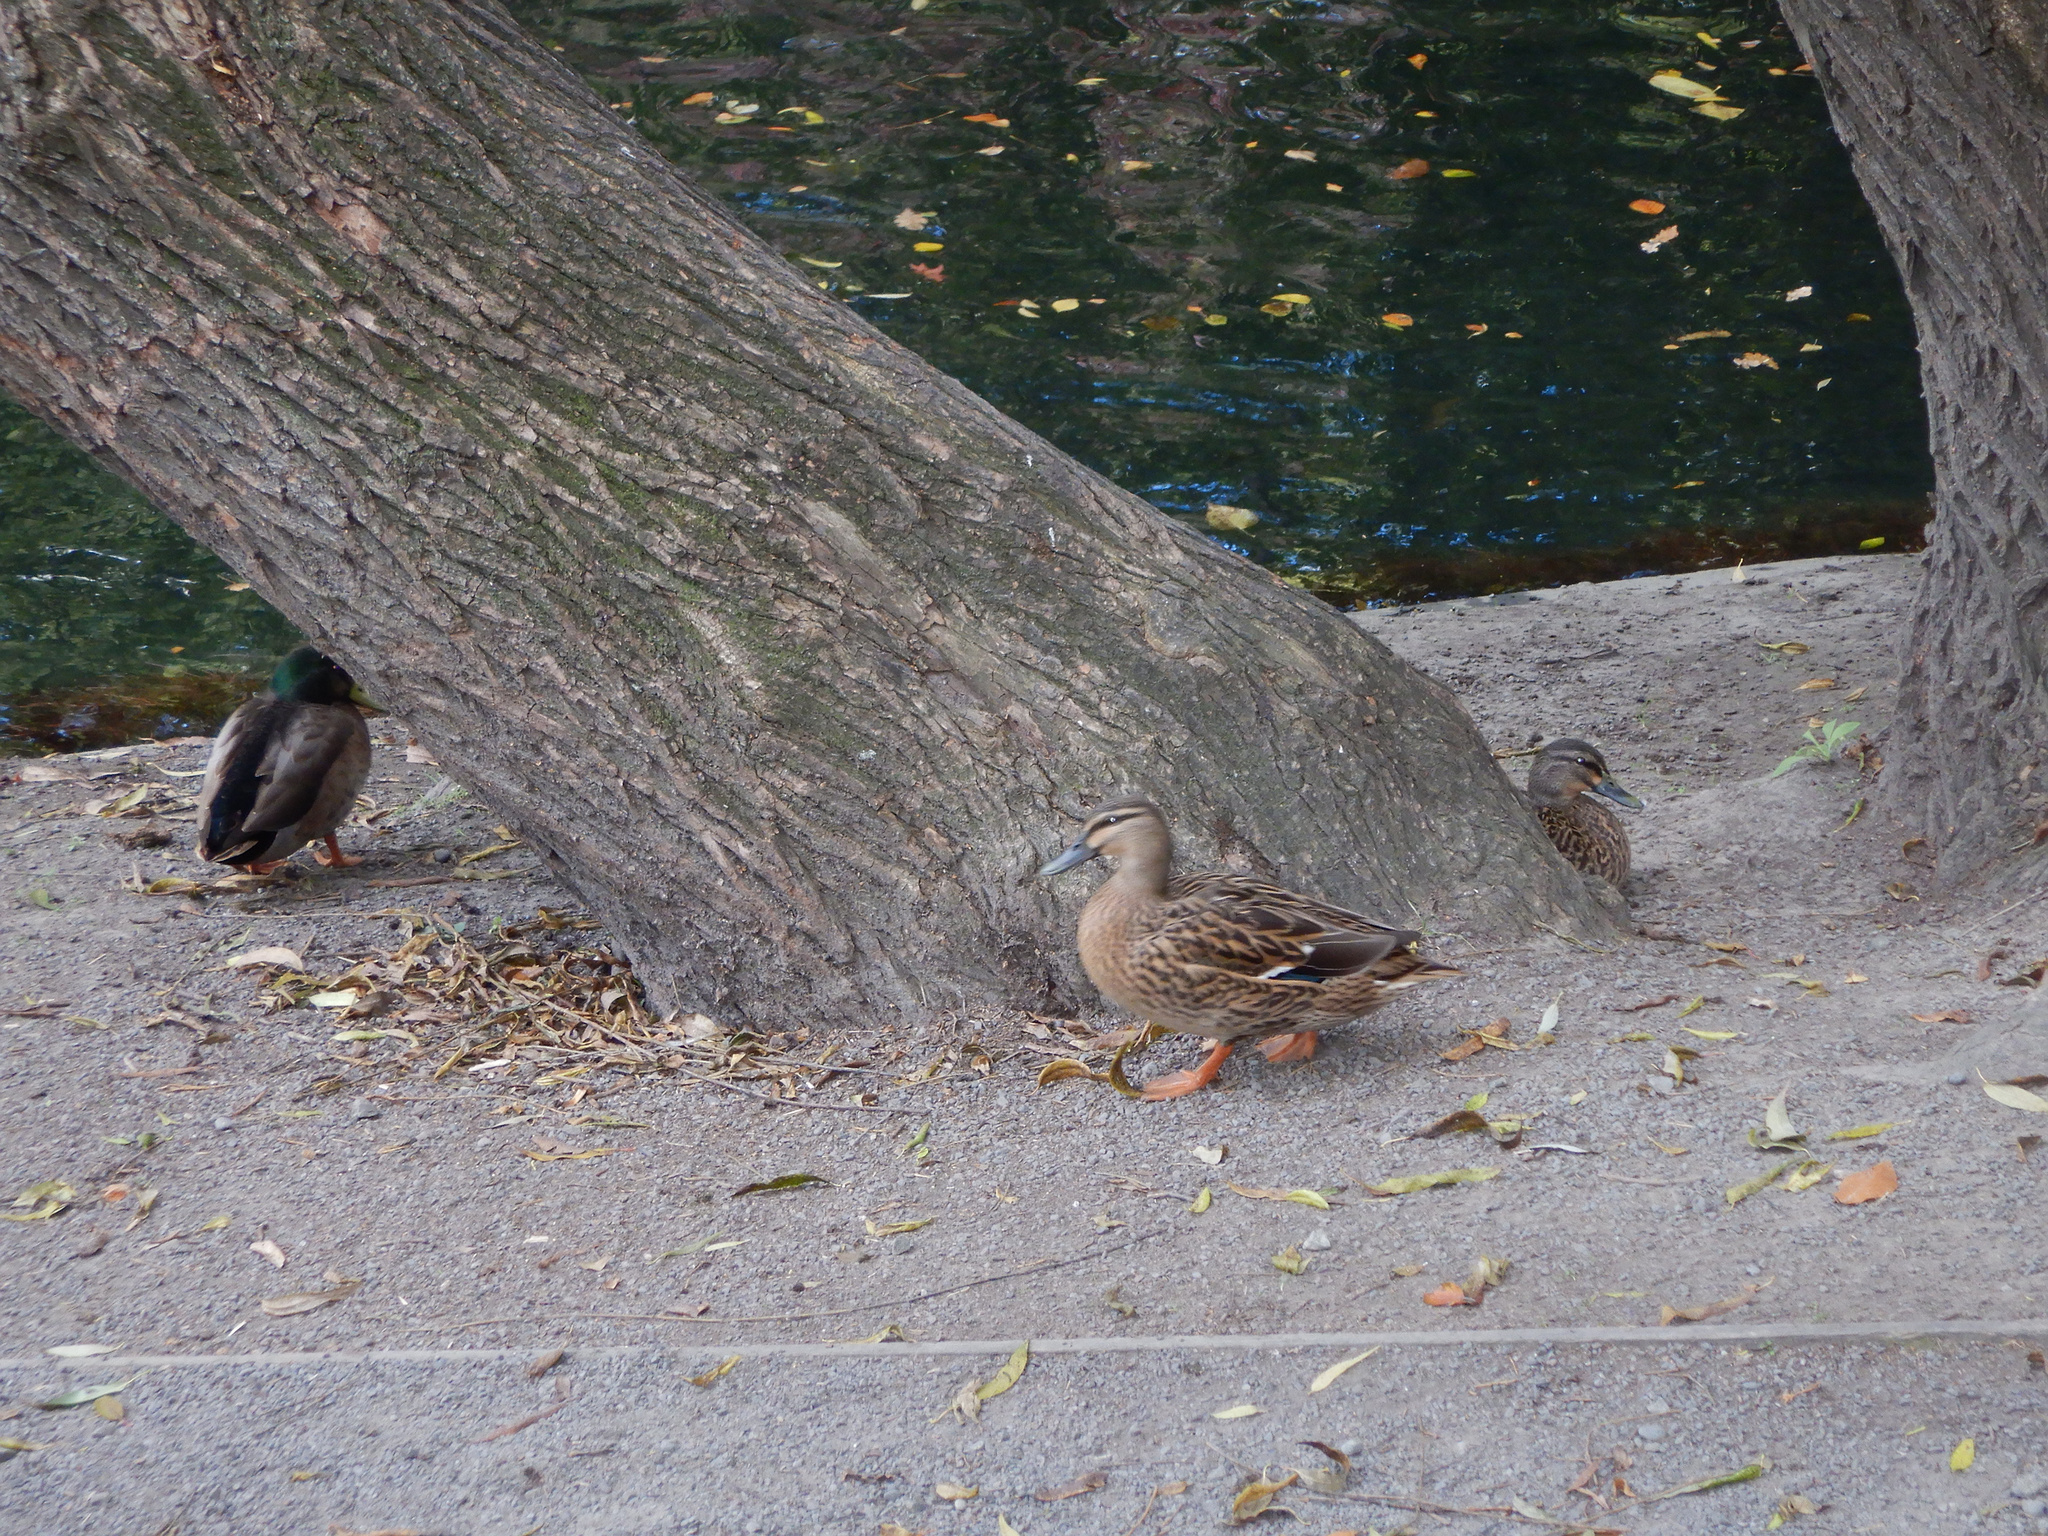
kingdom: Animalia
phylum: Chordata
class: Aves
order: Anseriformes
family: Anatidae
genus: Anas
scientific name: Anas
